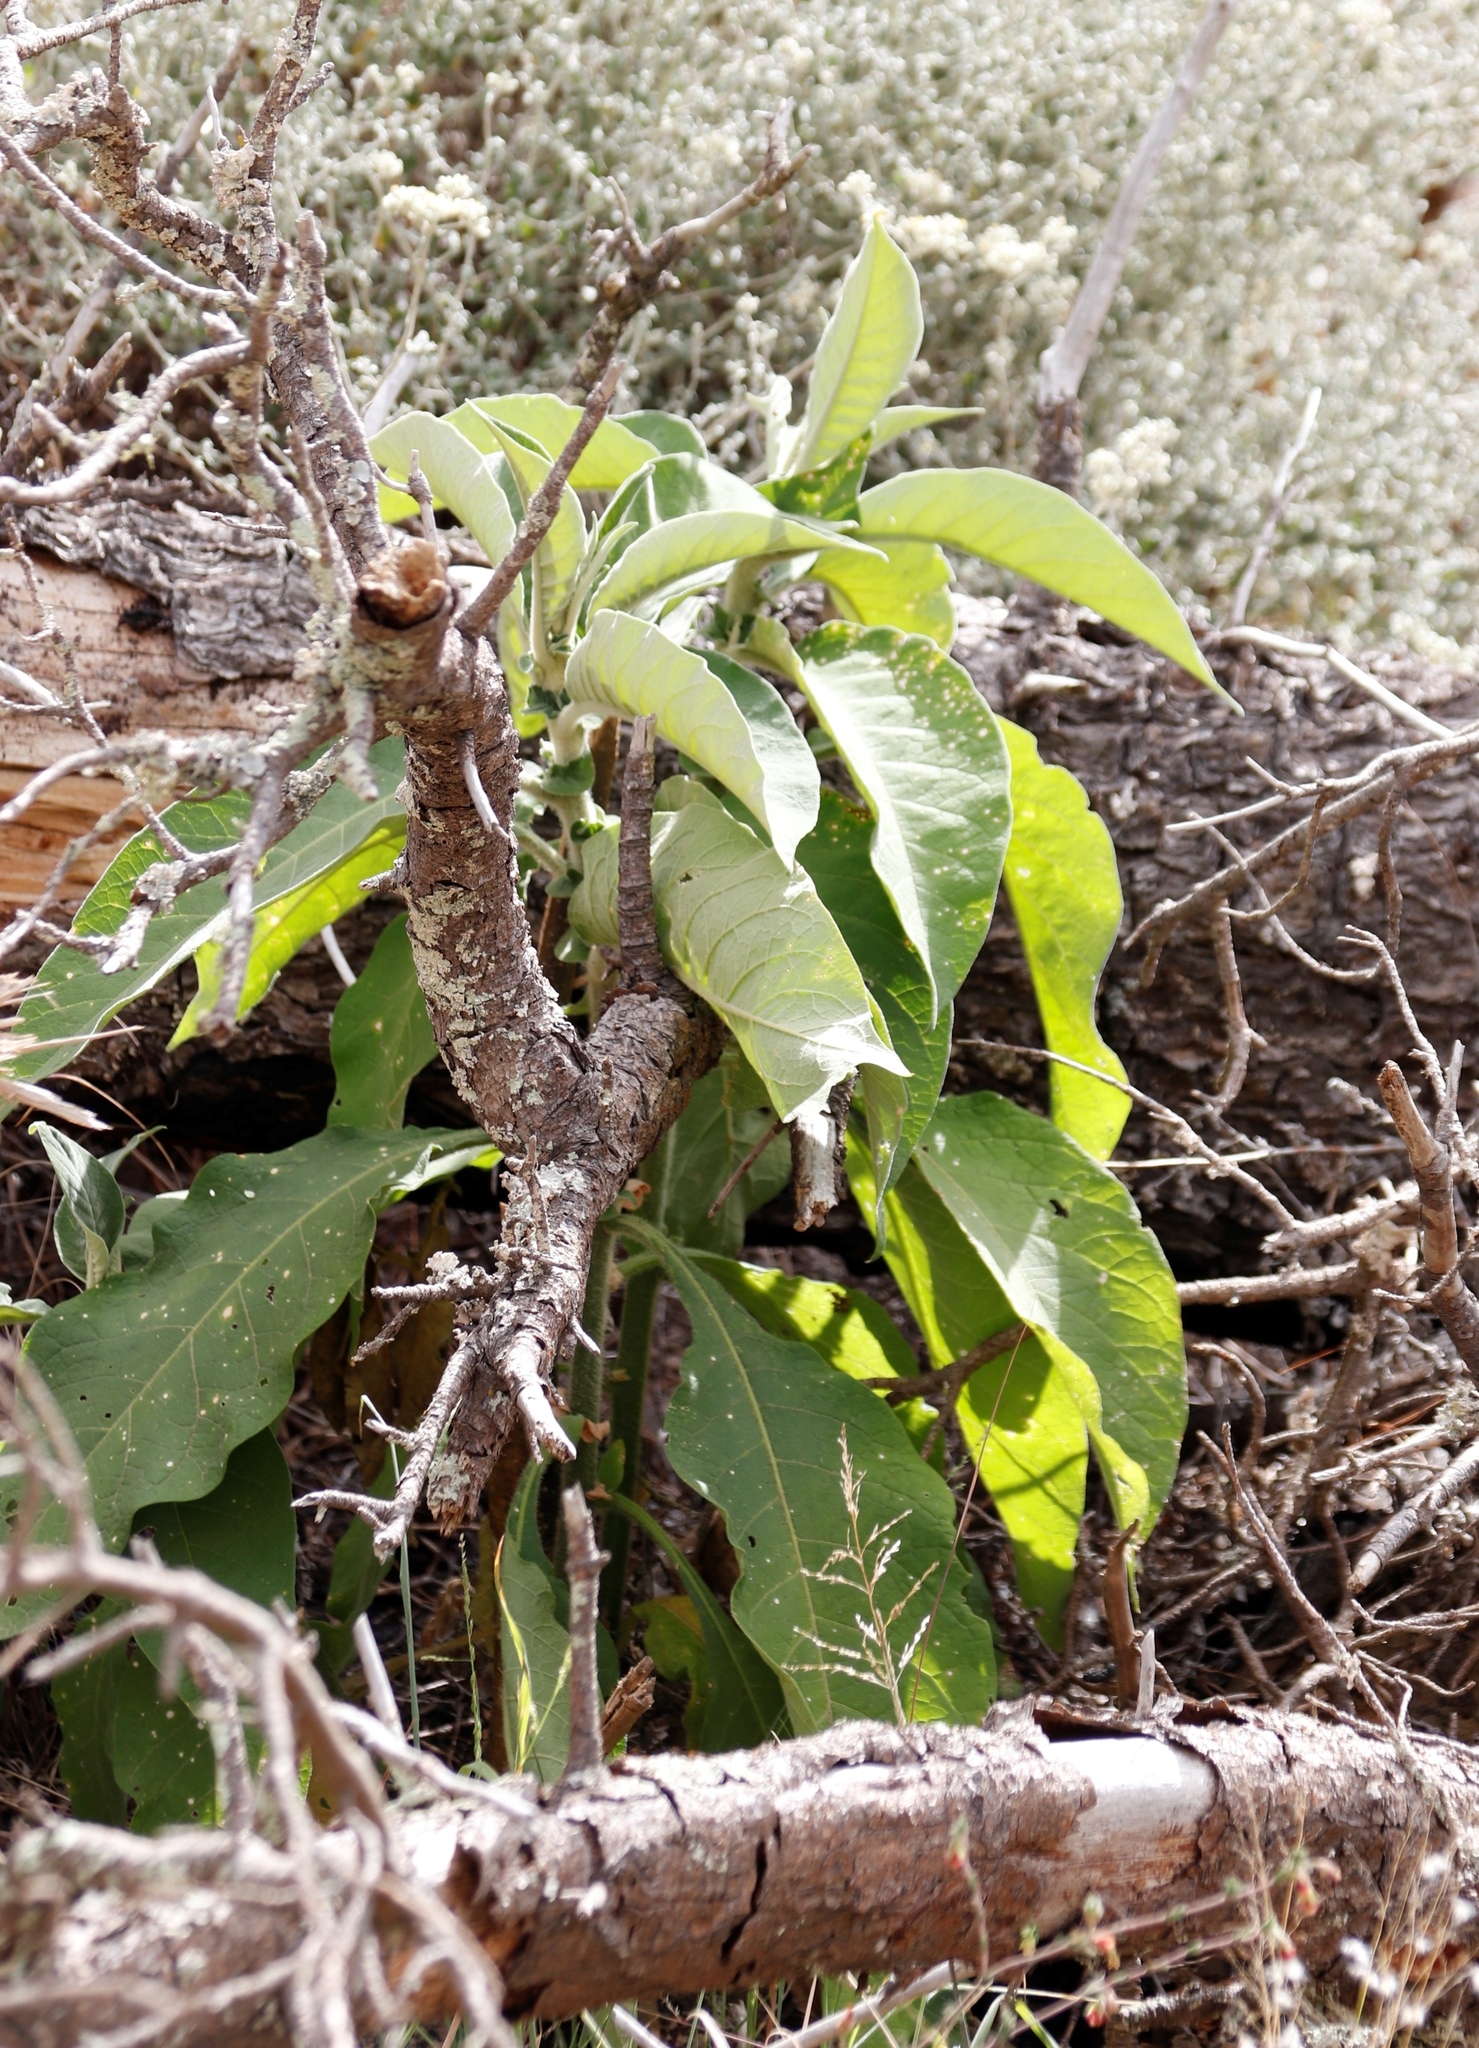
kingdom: Plantae
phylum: Tracheophyta
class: Magnoliopsida
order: Caryophyllales
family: Phytolaccaceae
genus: Phytolacca
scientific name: Phytolacca icosandra
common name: Button pokeweed
